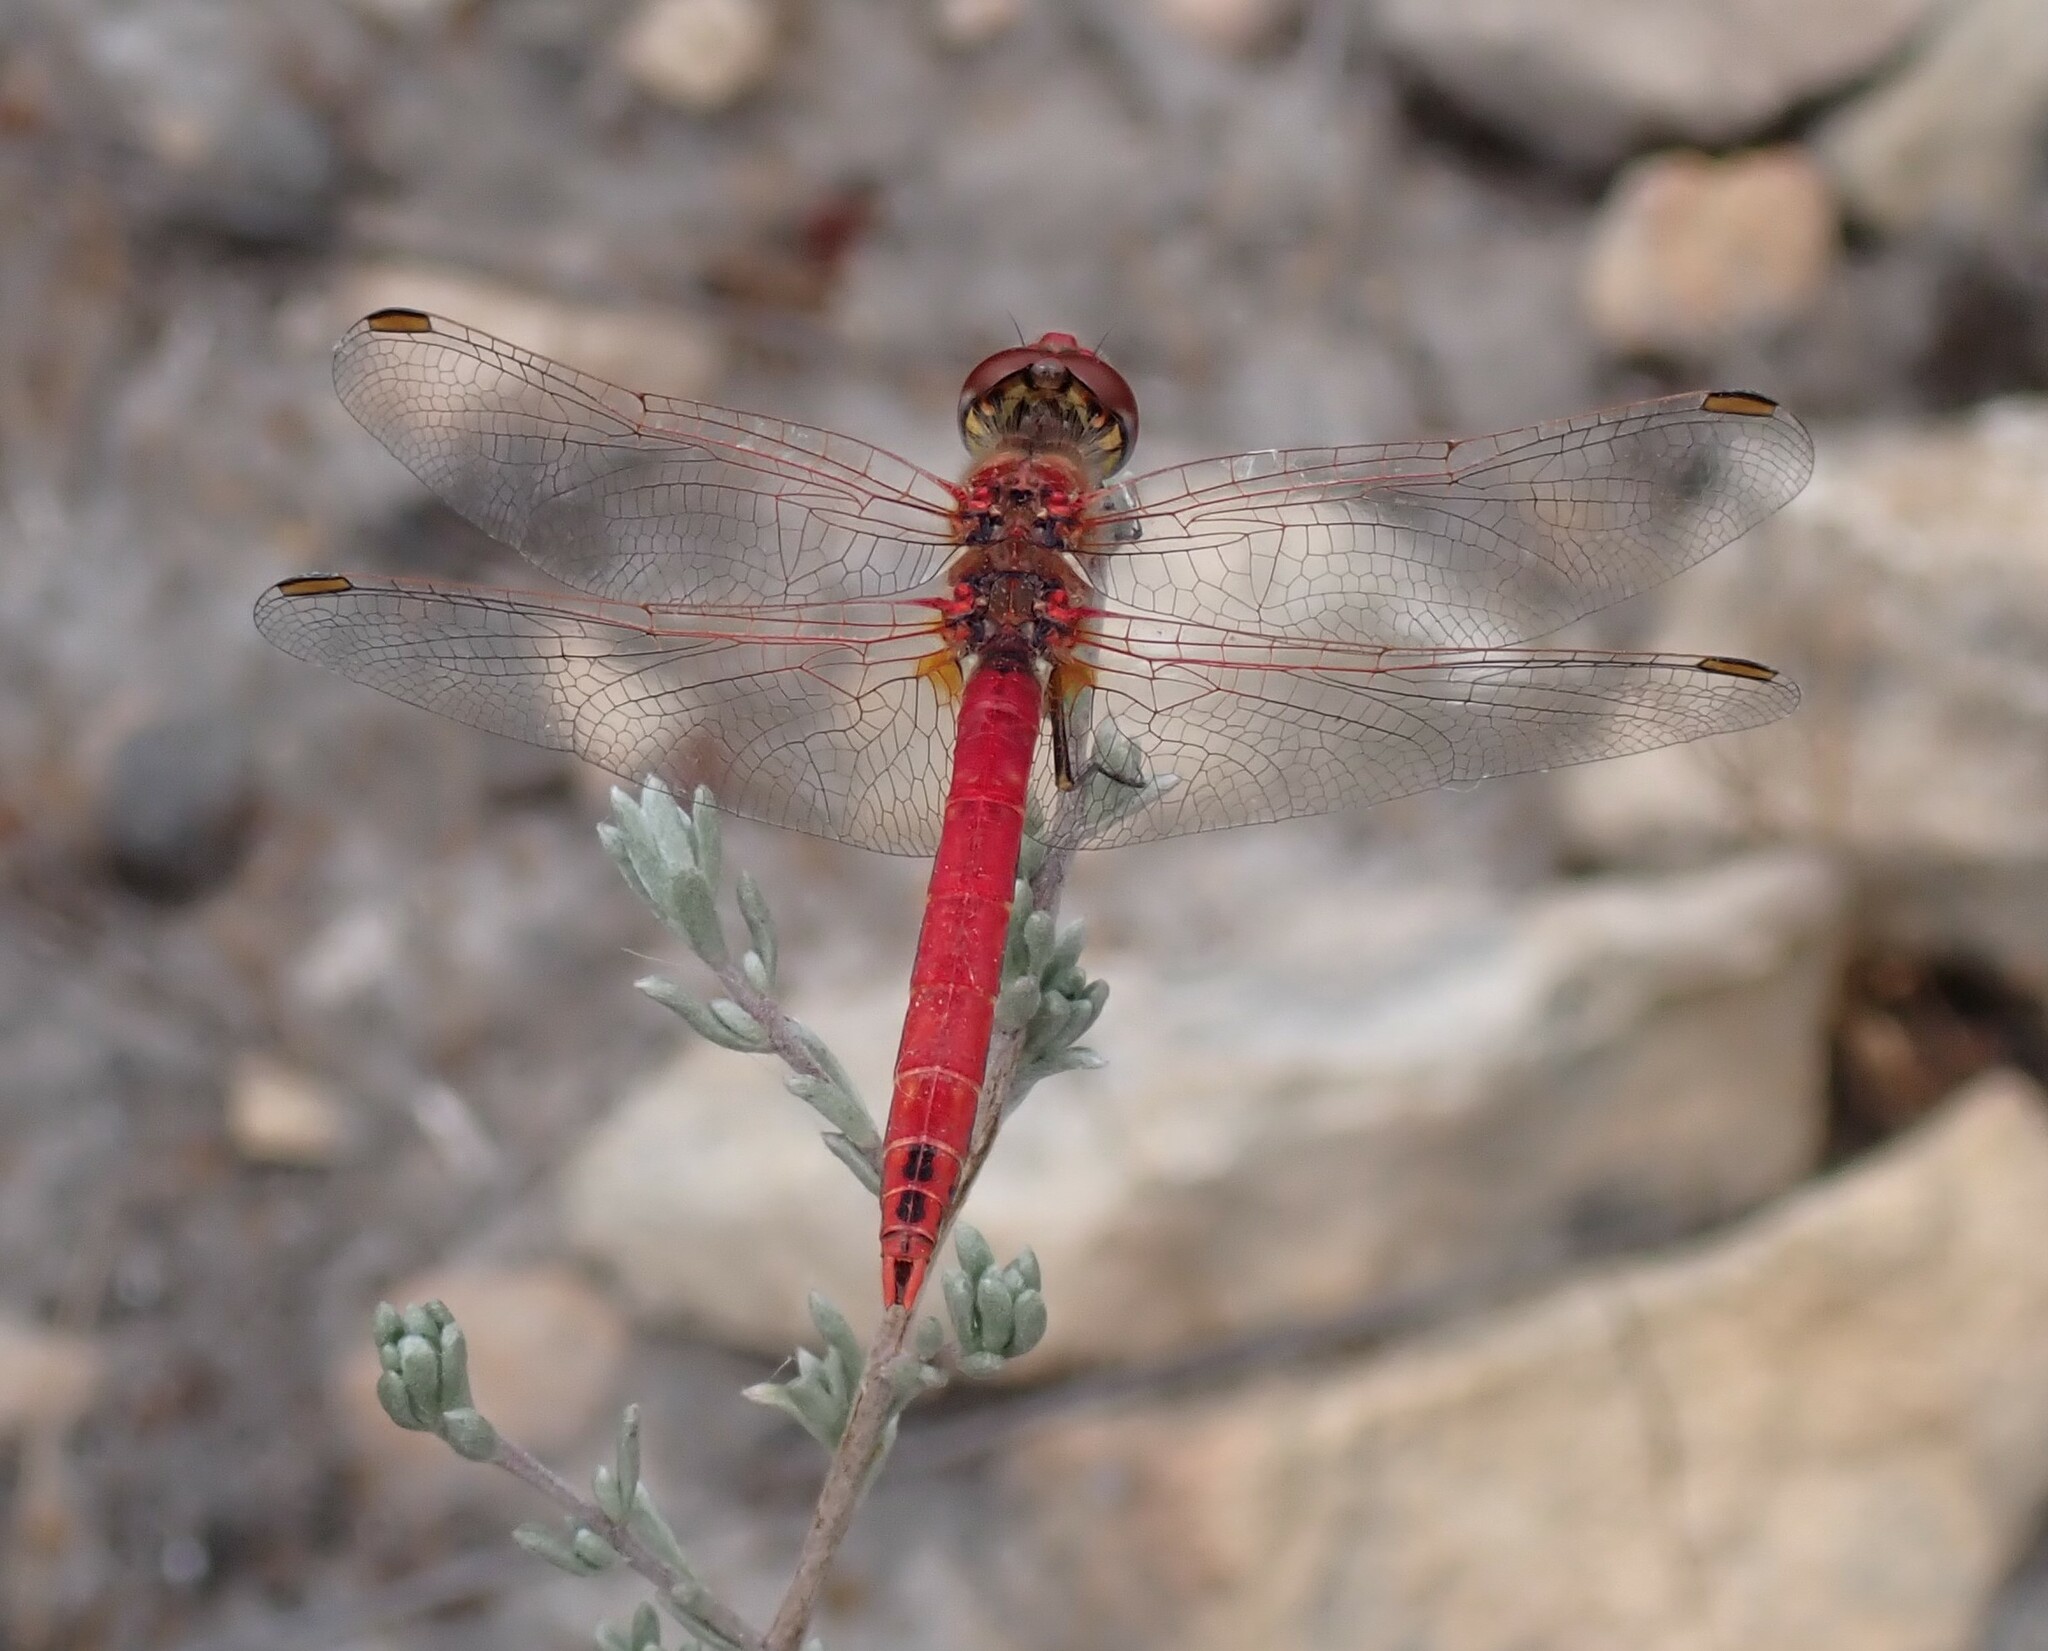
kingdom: Animalia
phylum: Arthropoda
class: Insecta
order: Odonata
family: Libellulidae
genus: Sympetrum
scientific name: Sympetrum fonscolombii
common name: Red-veined darter
